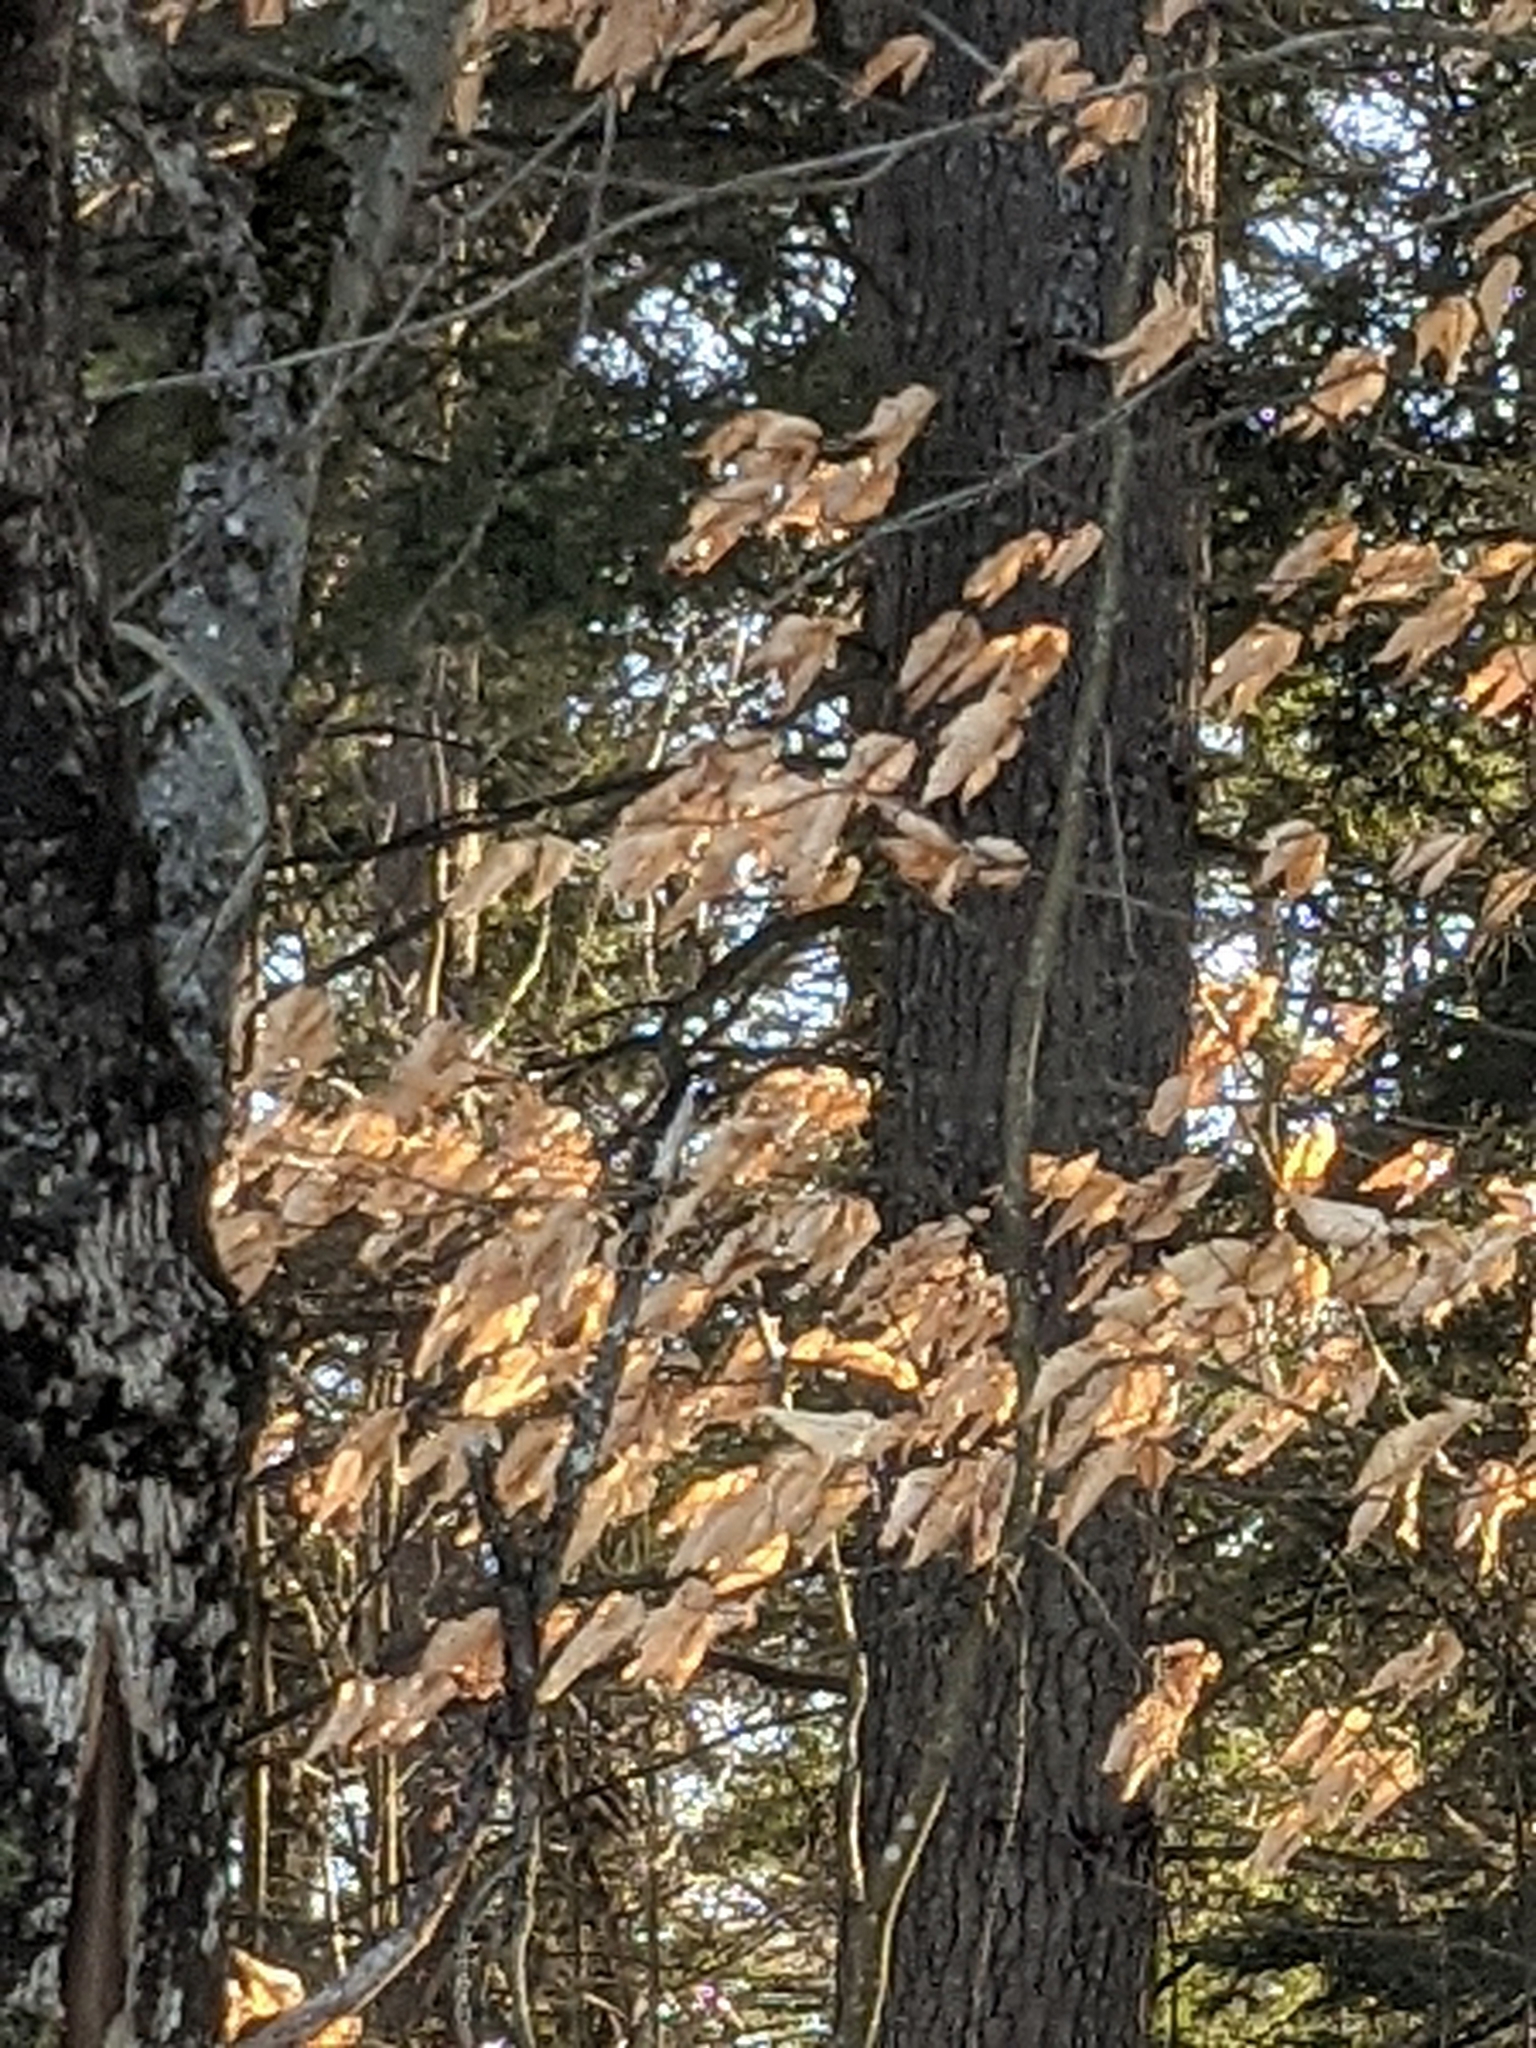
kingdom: Plantae
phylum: Tracheophyta
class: Magnoliopsida
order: Fagales
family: Fagaceae
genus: Fagus
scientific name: Fagus grandifolia
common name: American beech
